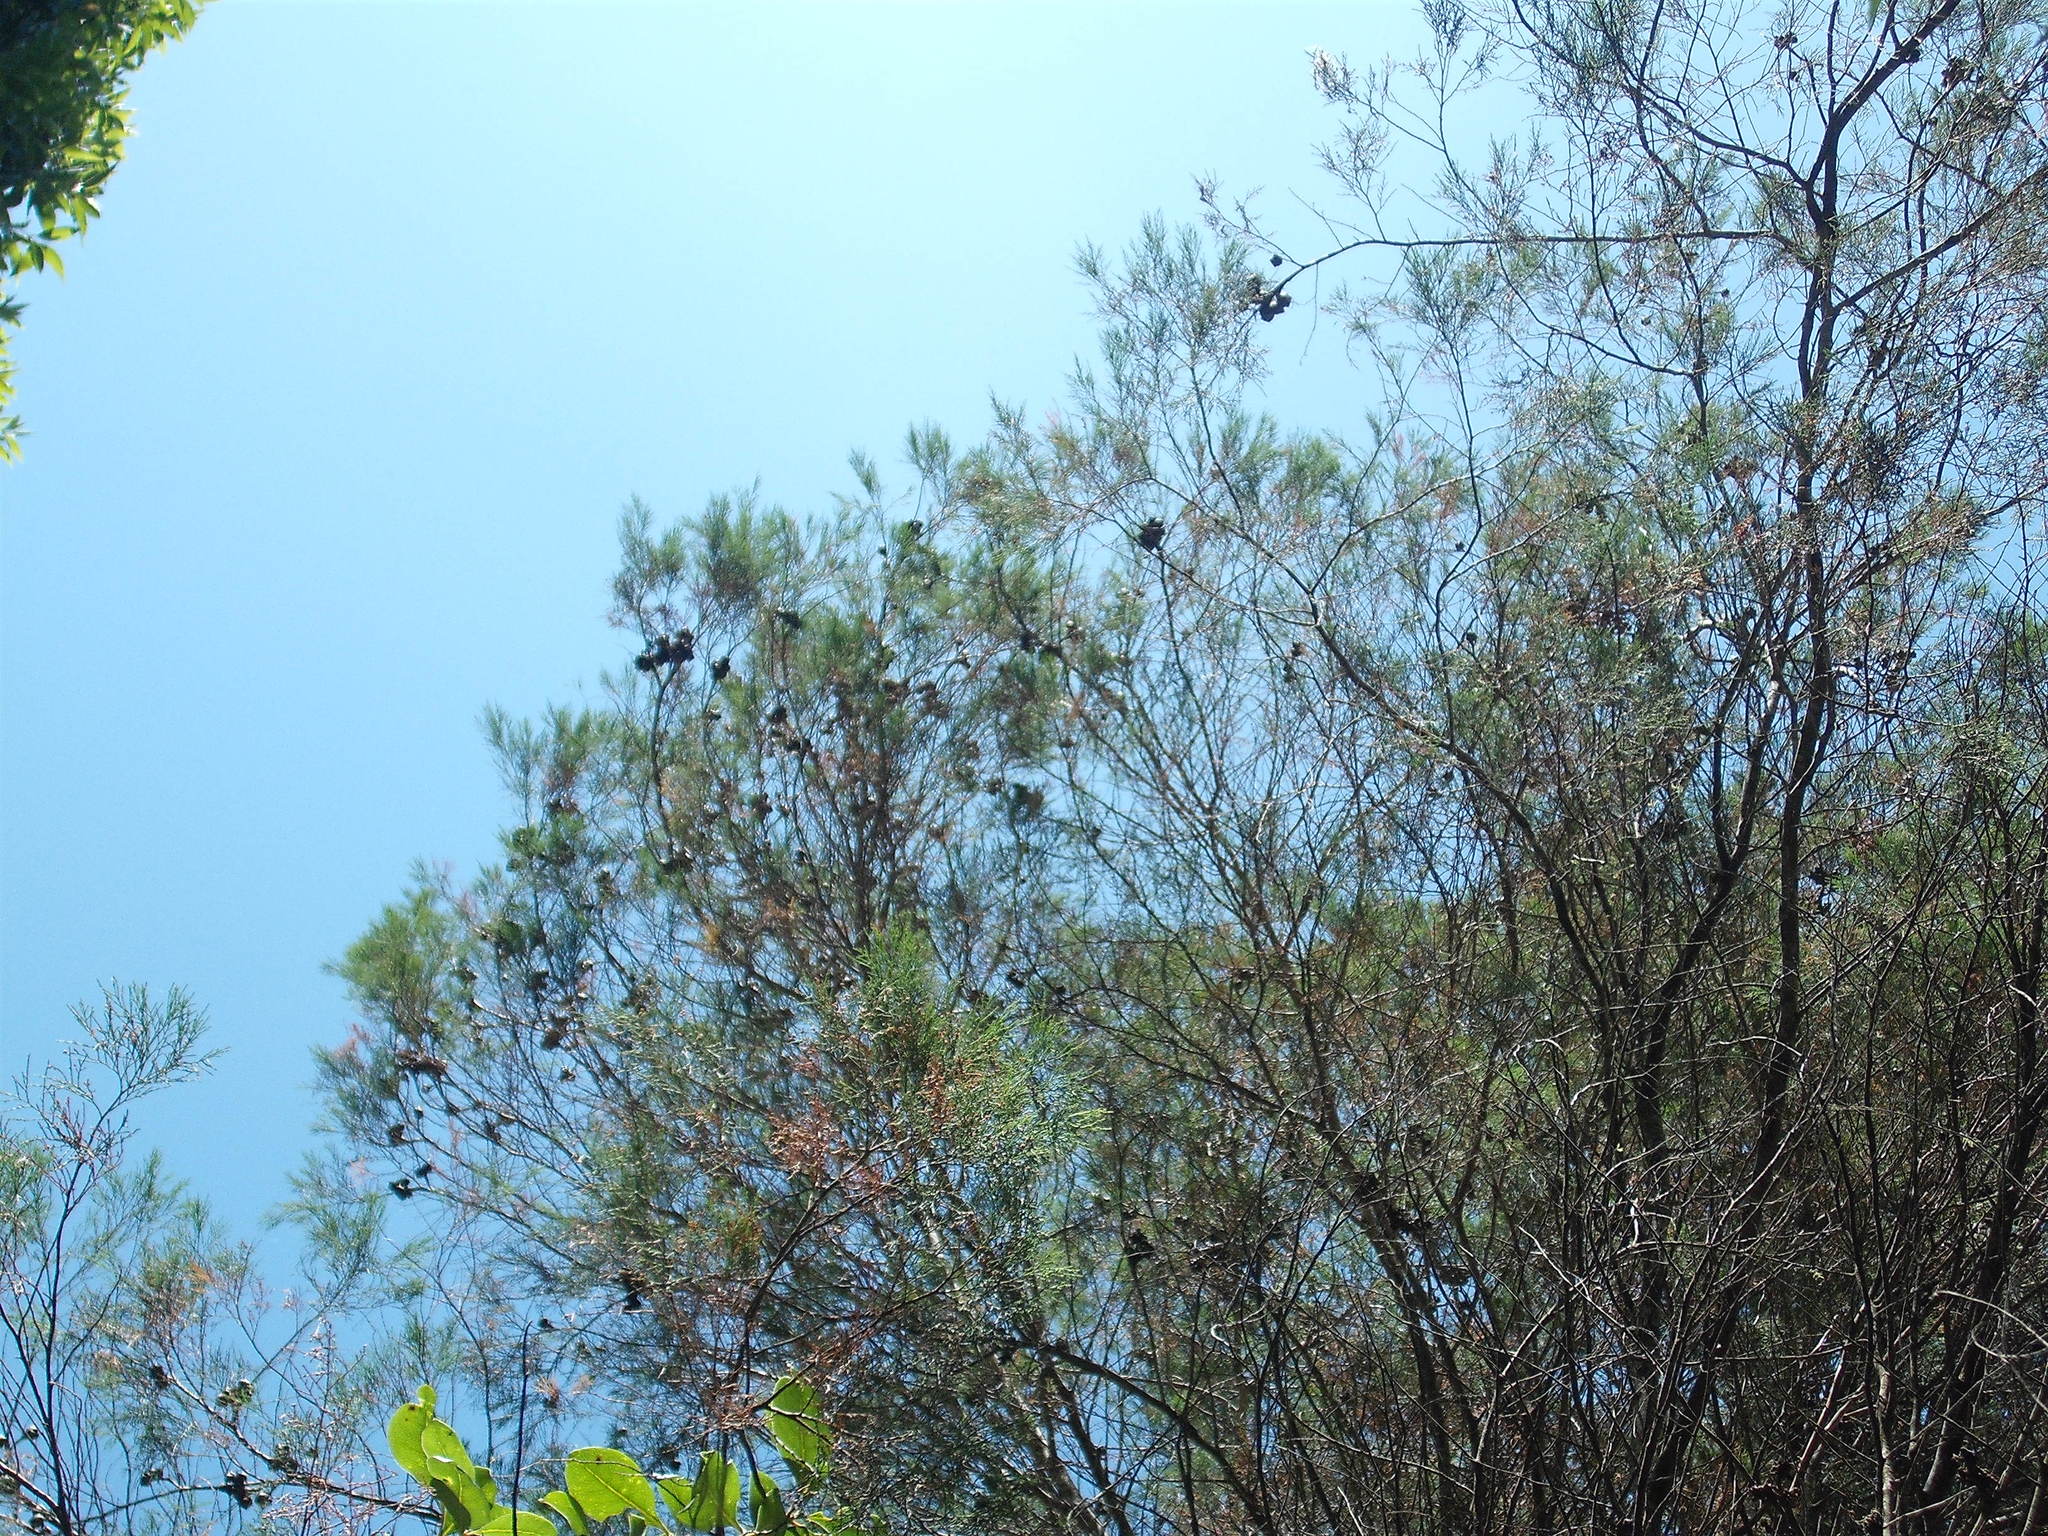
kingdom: Plantae
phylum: Tracheophyta
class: Pinopsida
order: Pinales
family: Cupressaceae
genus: Callitris
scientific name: Callitris rhomboidea
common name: Illawara mountain pine
